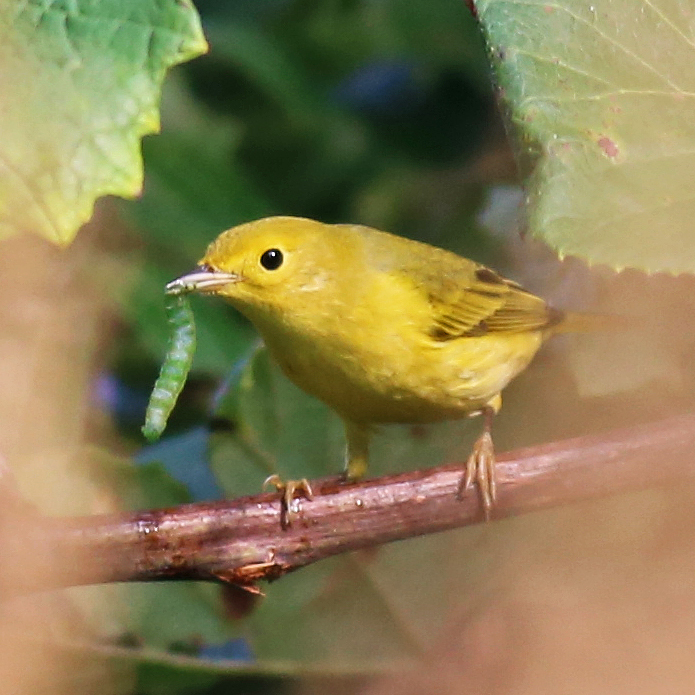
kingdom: Animalia
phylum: Chordata
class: Aves
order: Passeriformes
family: Parulidae
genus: Setophaga
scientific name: Setophaga petechia
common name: Yellow warbler
